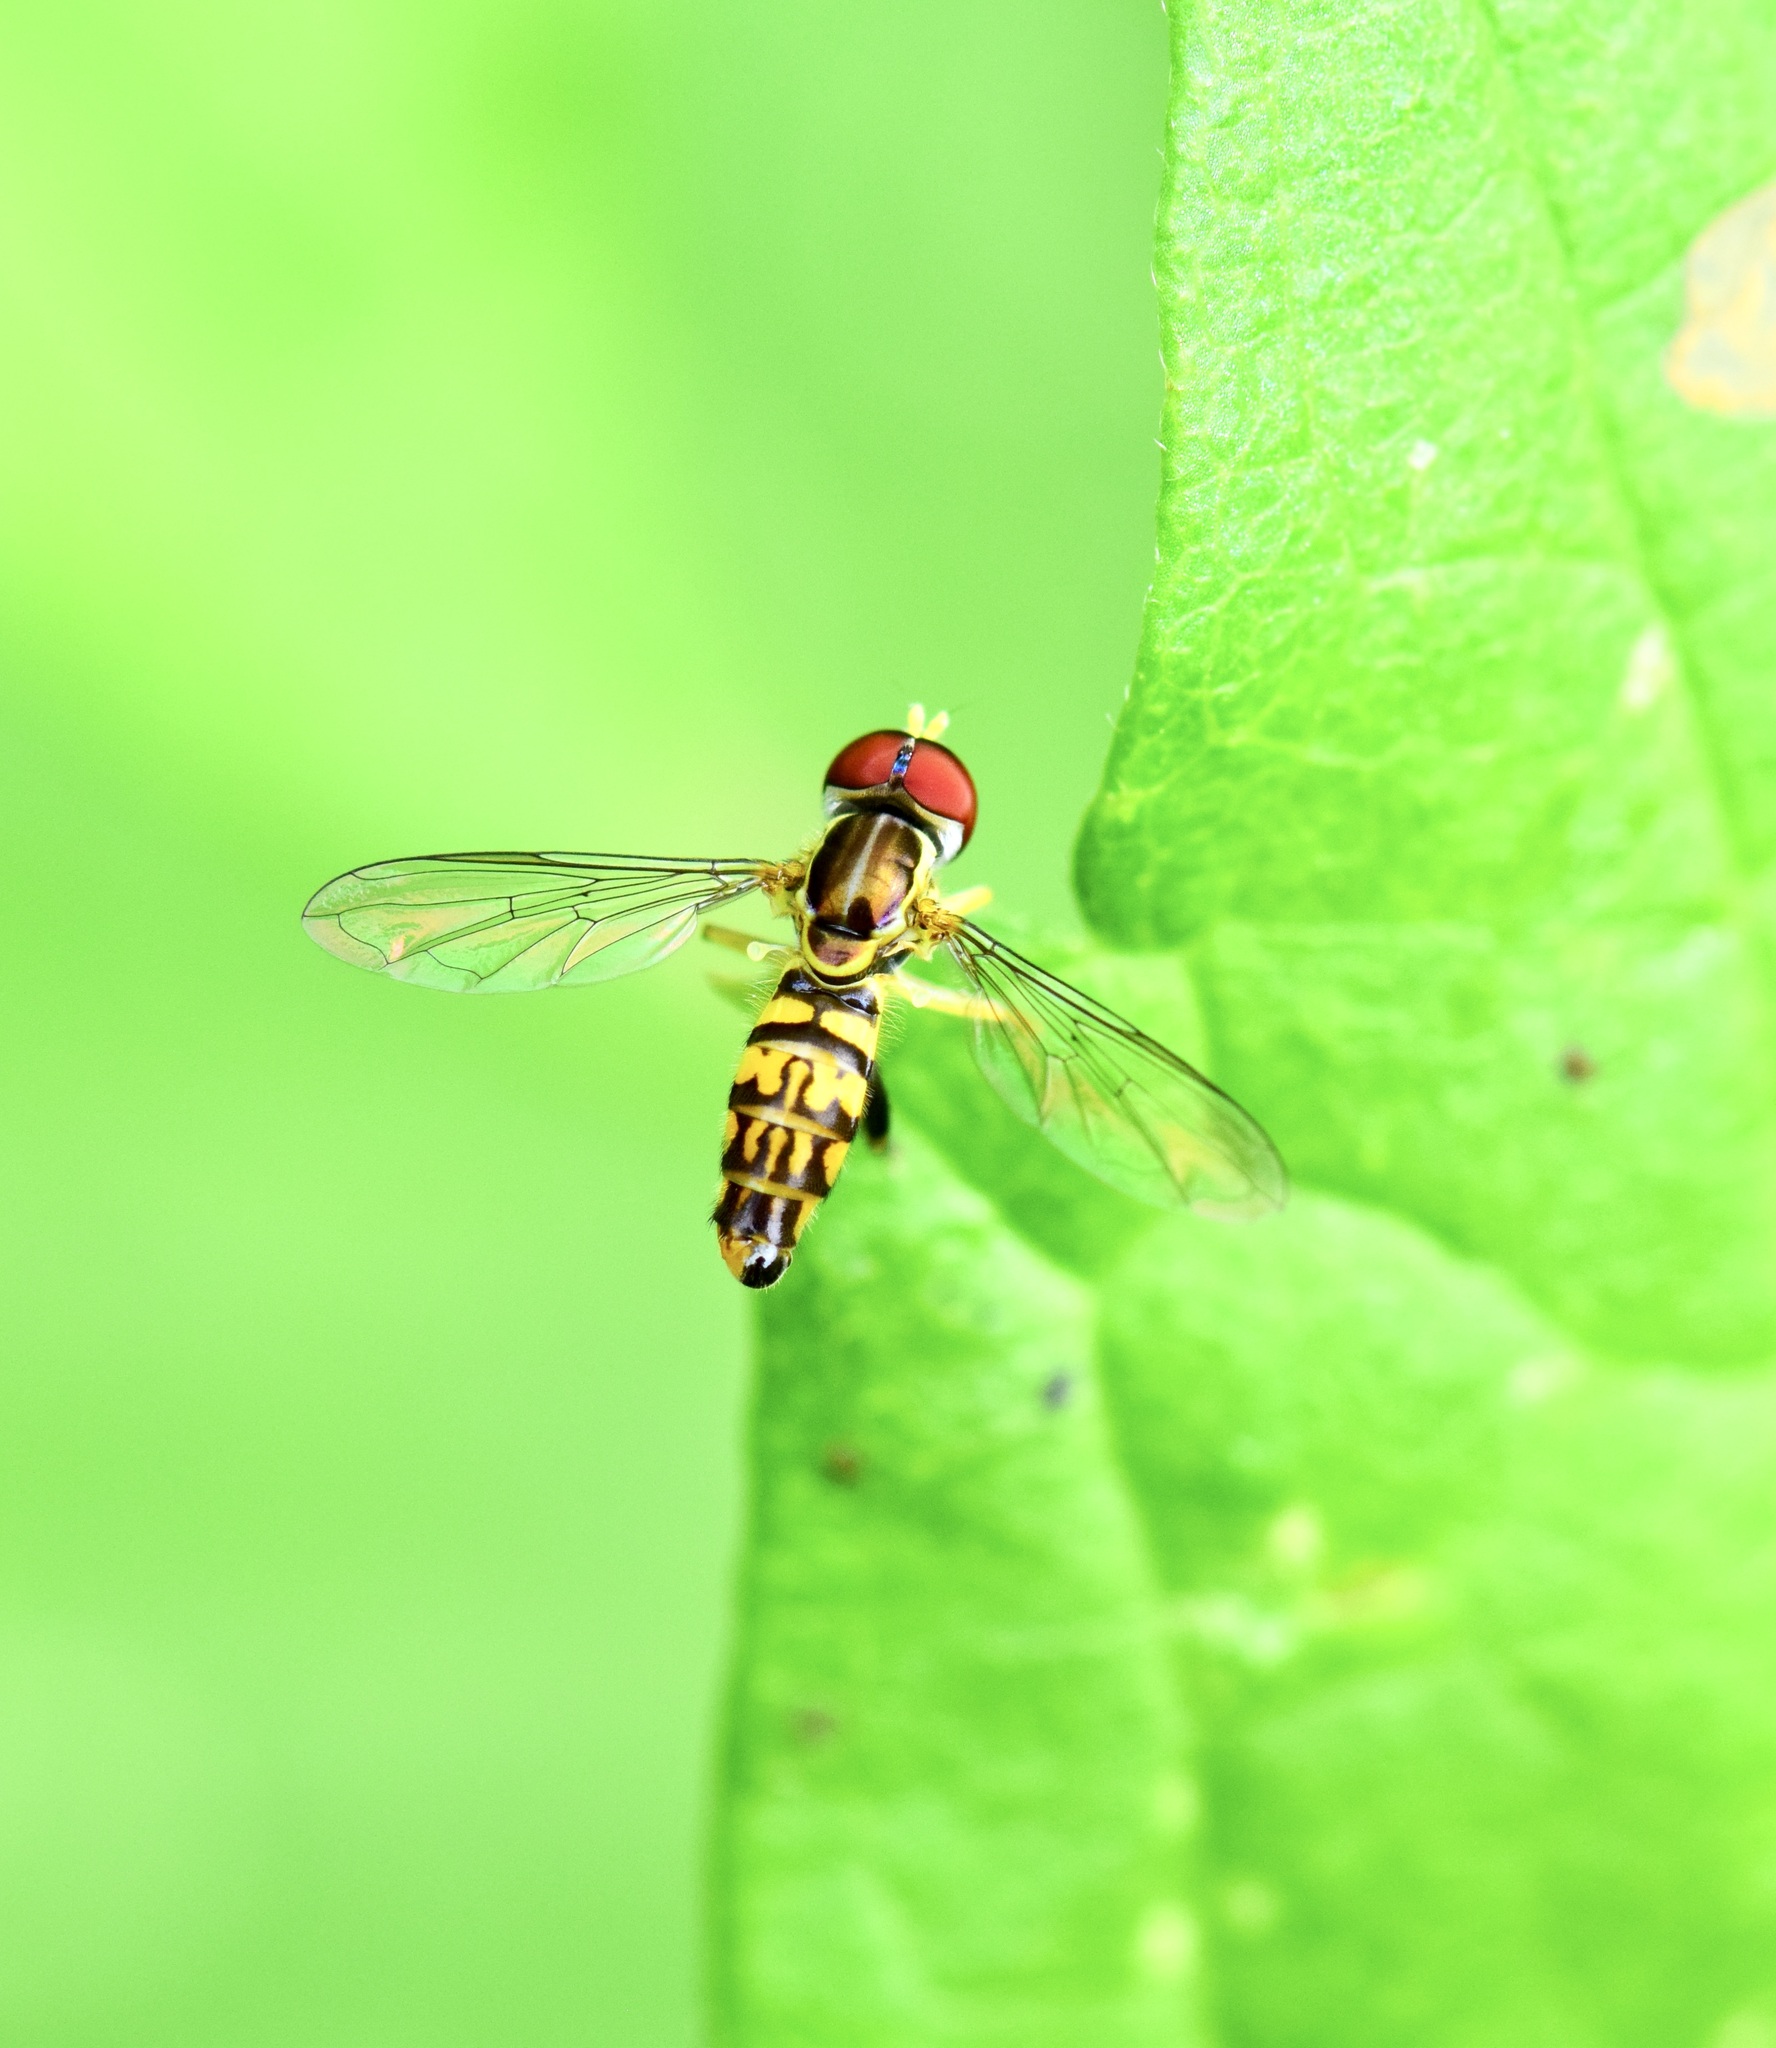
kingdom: Animalia
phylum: Arthropoda
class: Insecta
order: Diptera
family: Syrphidae
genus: Toxomerus
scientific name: Toxomerus geminatus
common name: Eastern calligrapher
